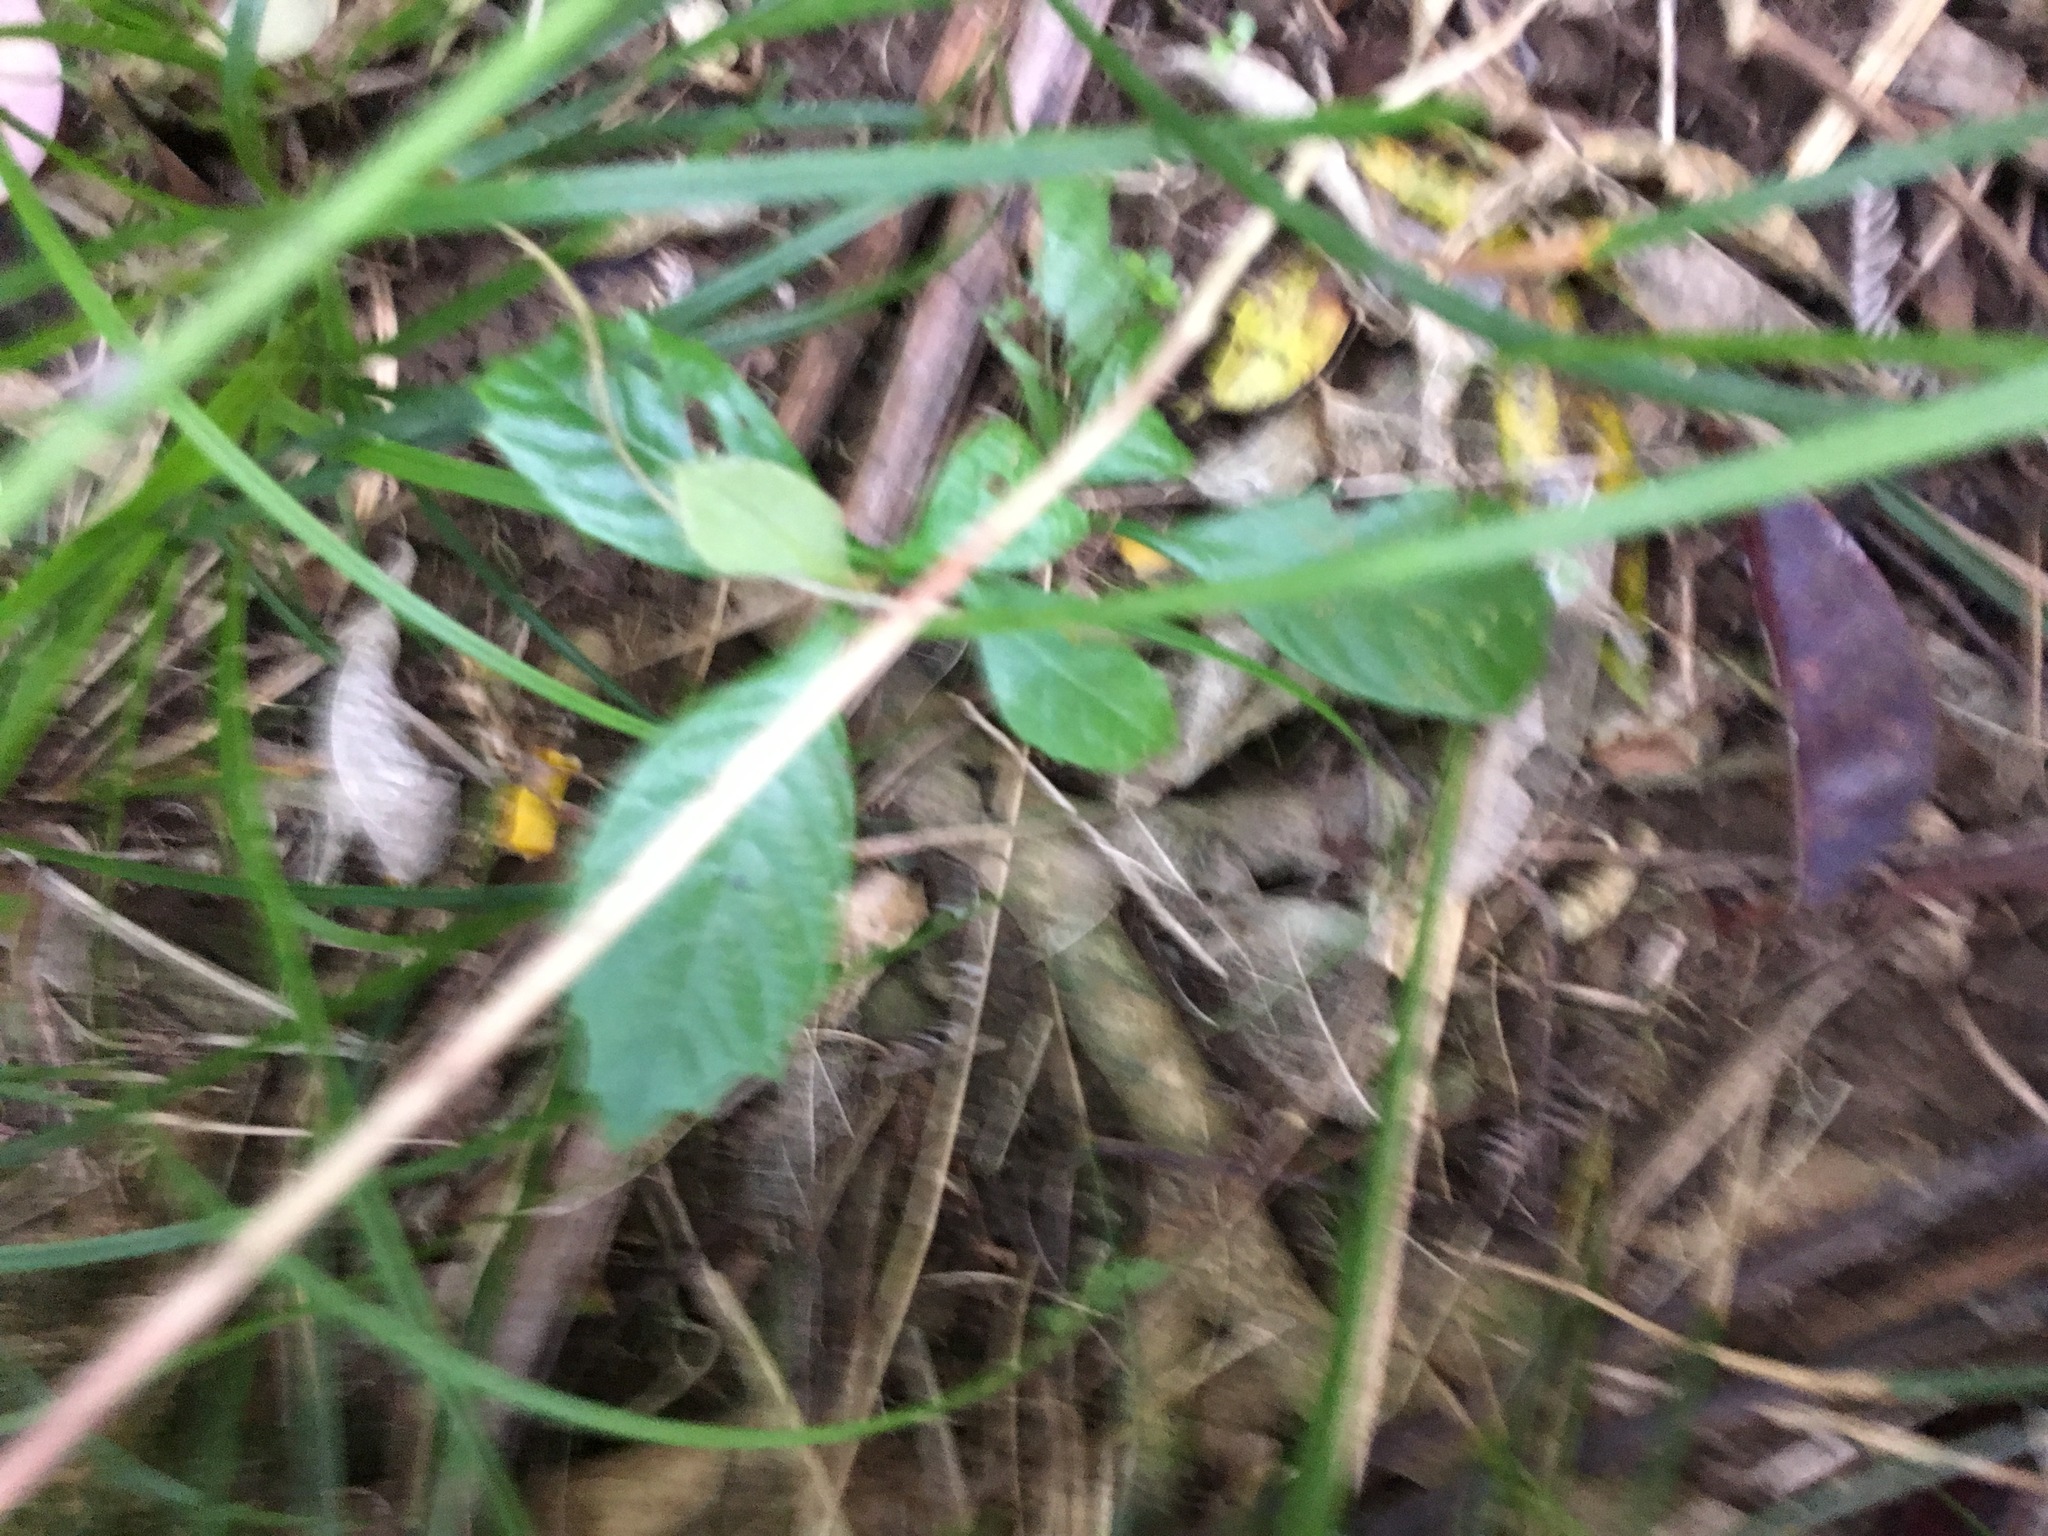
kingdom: Plantae
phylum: Tracheophyta
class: Magnoliopsida
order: Rosales
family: Rosaceae
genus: Rhaphiolepis
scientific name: Rhaphiolepis bibas
